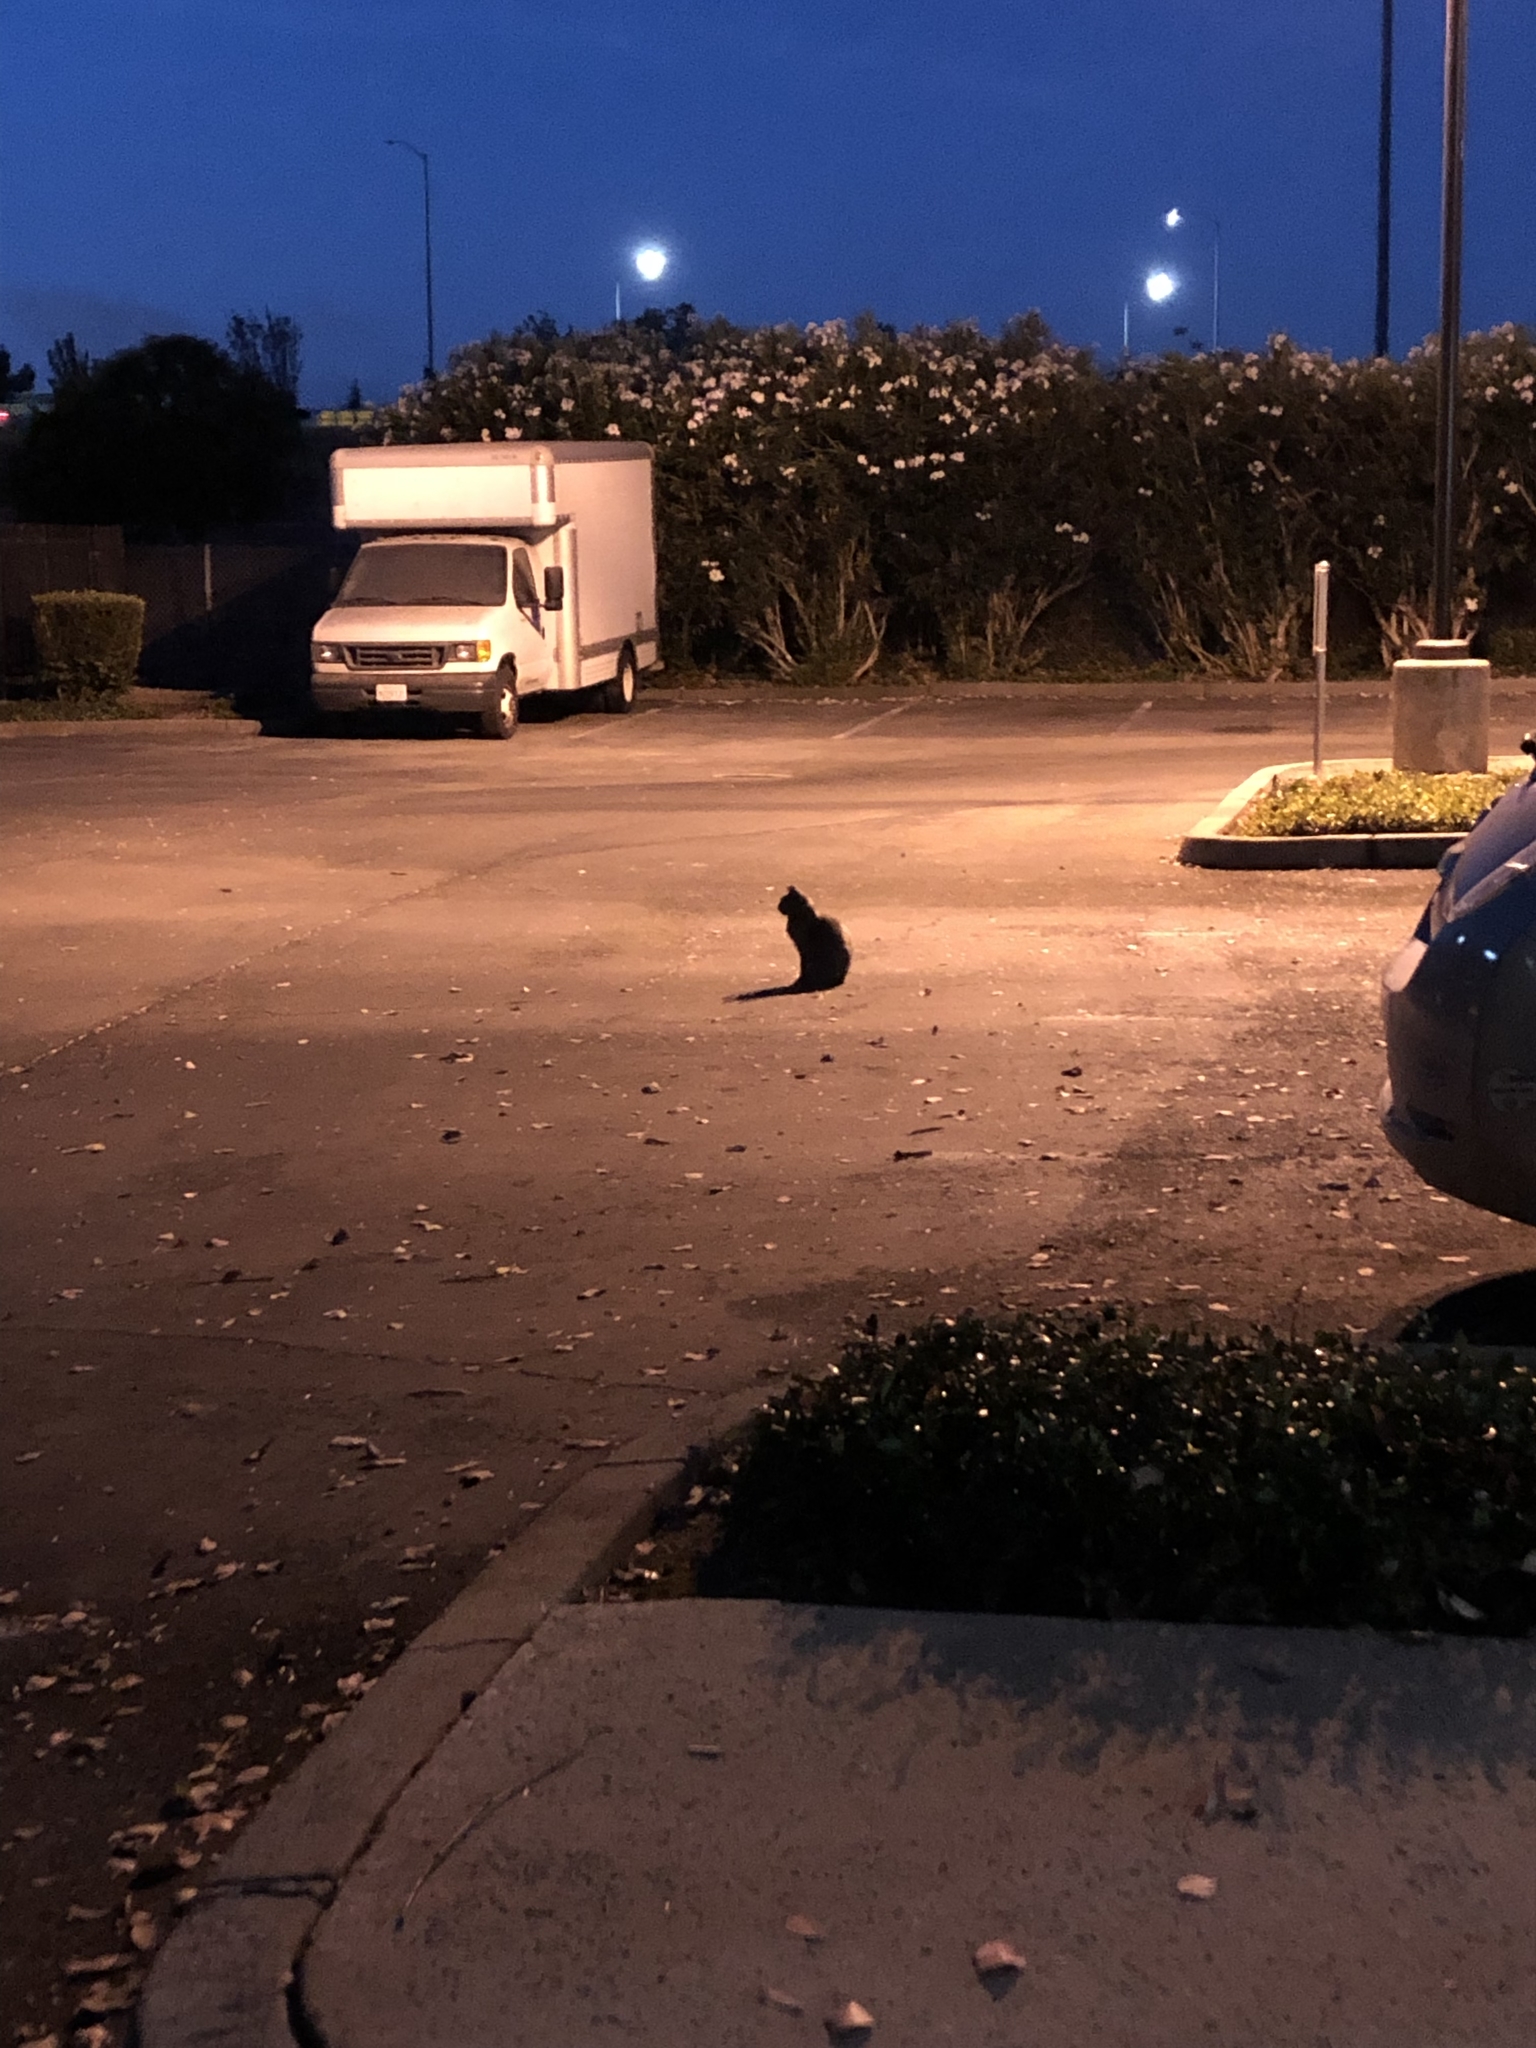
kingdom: Animalia
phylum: Chordata
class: Mammalia
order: Carnivora
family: Felidae
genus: Felis
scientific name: Felis catus
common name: Domestic cat
